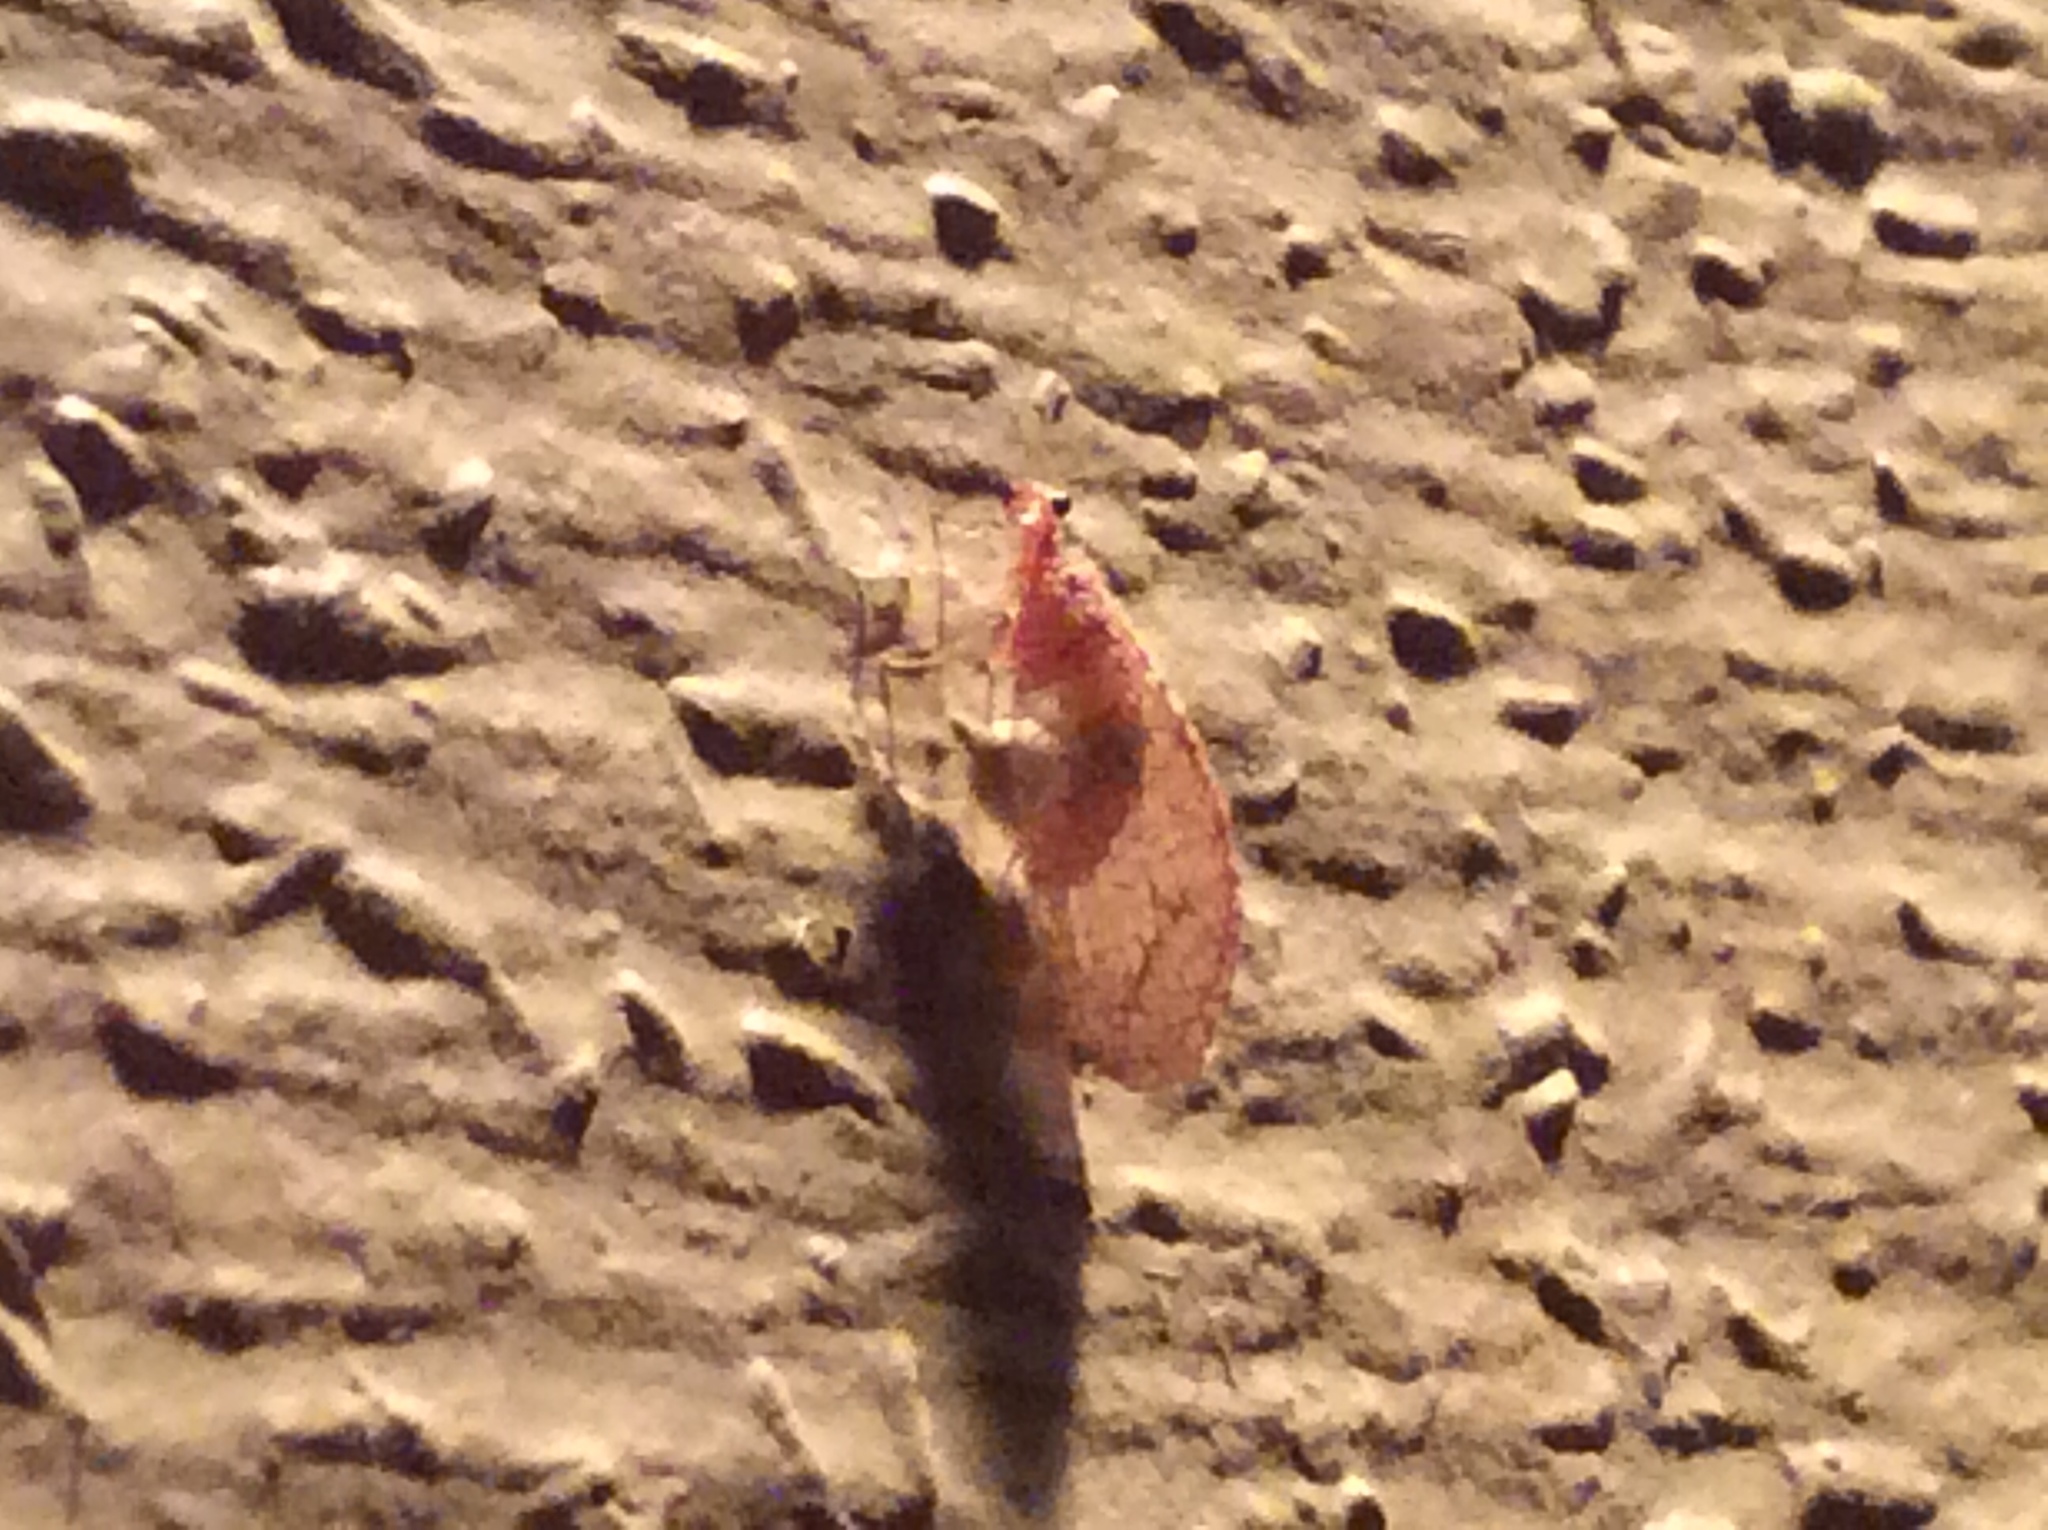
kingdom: Animalia
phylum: Arthropoda
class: Insecta
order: Neuroptera
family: Hemerobiidae
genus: Micromus
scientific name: Micromus posticus
